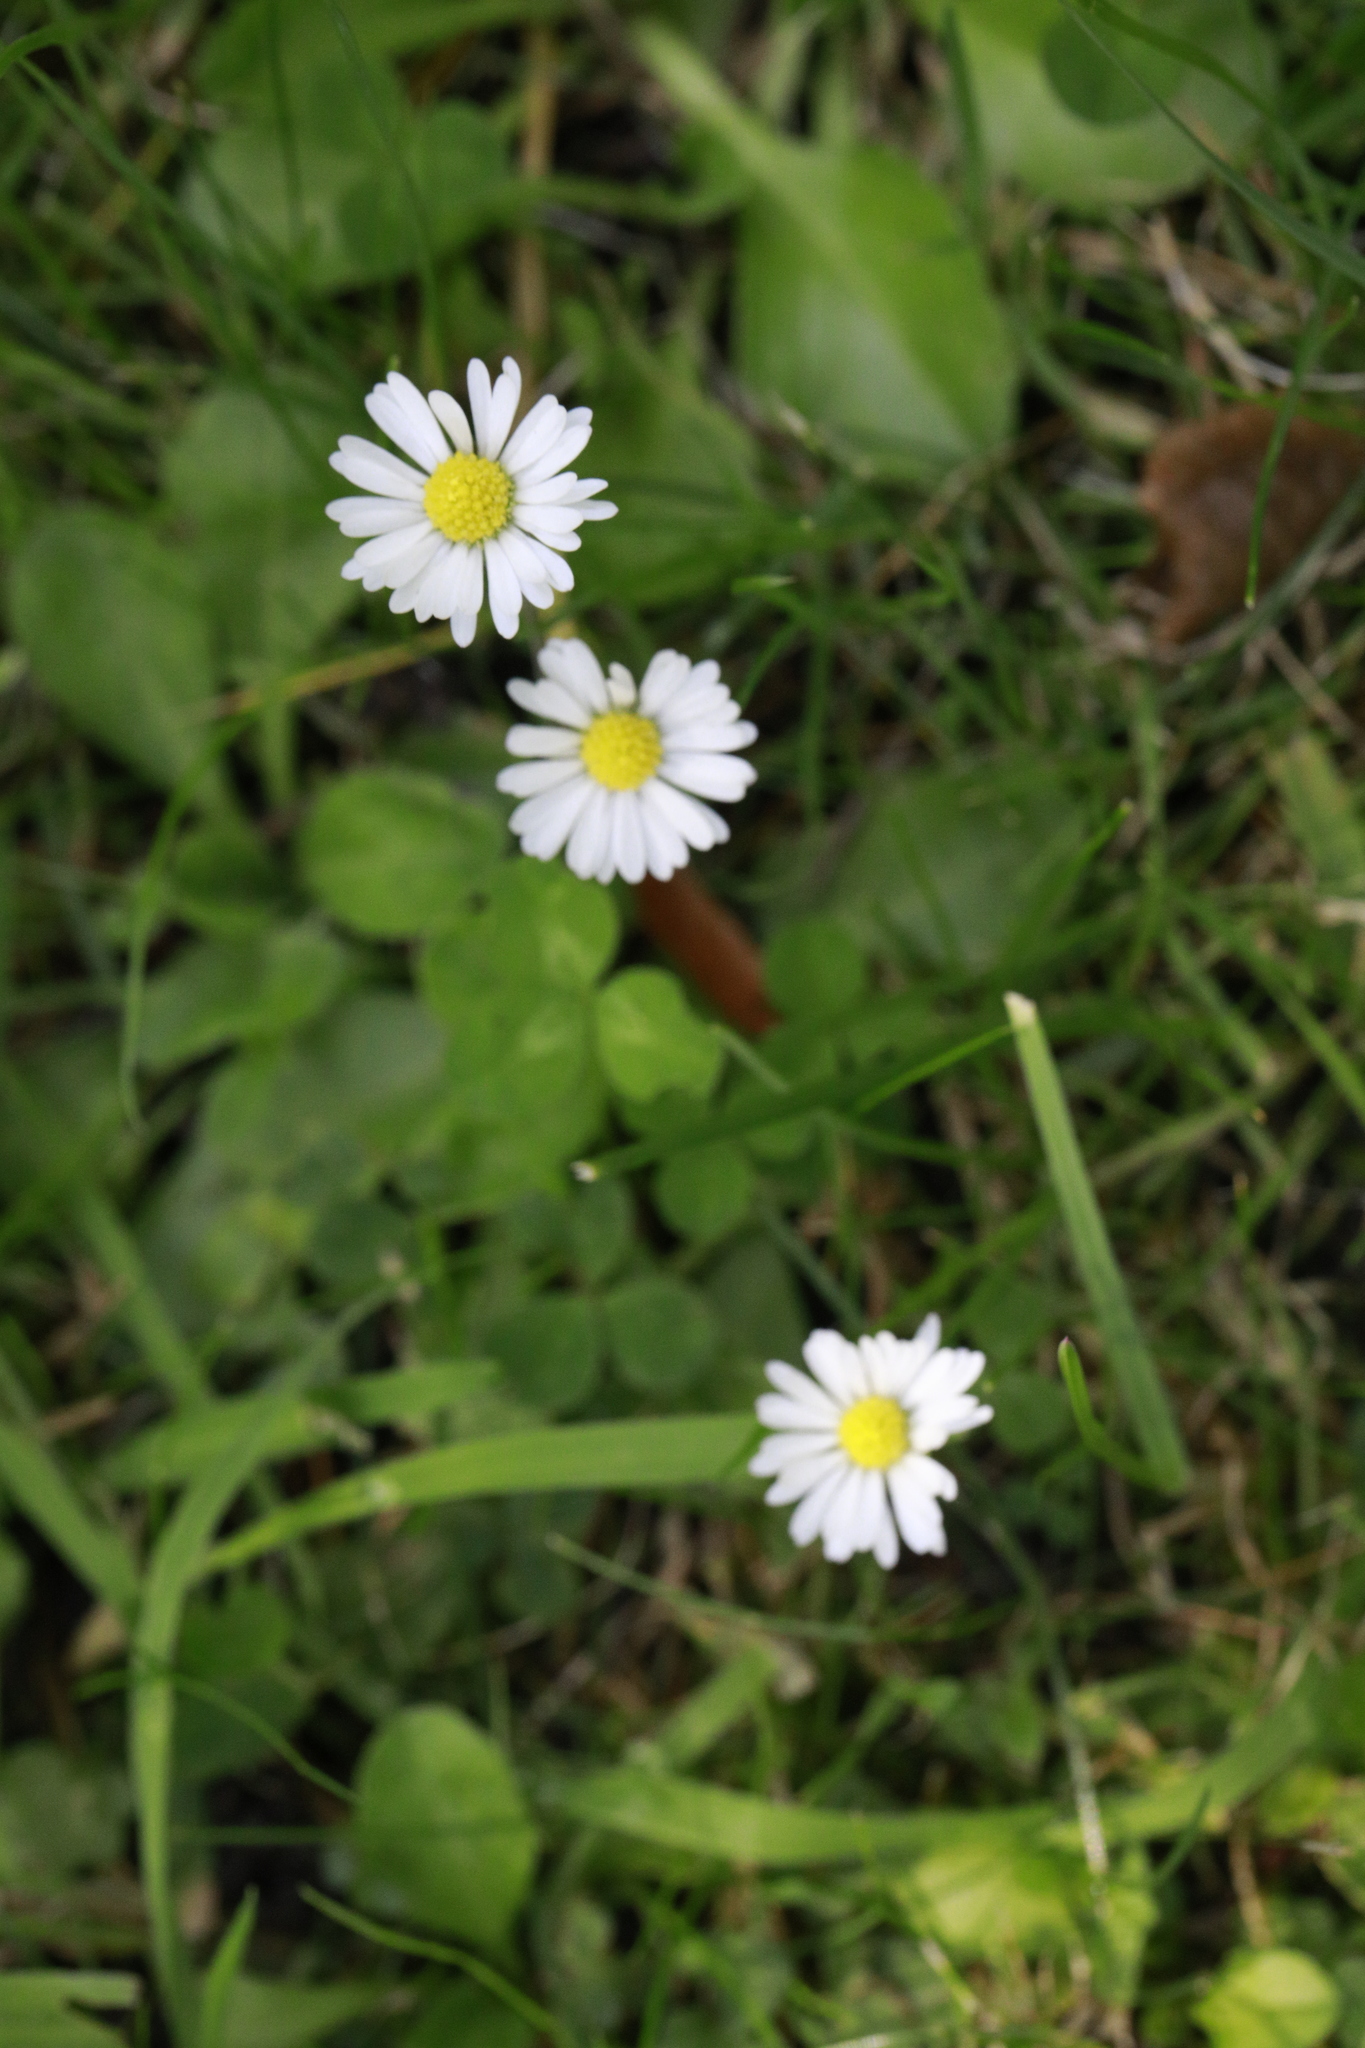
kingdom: Plantae
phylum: Tracheophyta
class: Magnoliopsida
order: Asterales
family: Asteraceae
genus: Bellis
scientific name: Bellis perennis
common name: Lawndaisy
